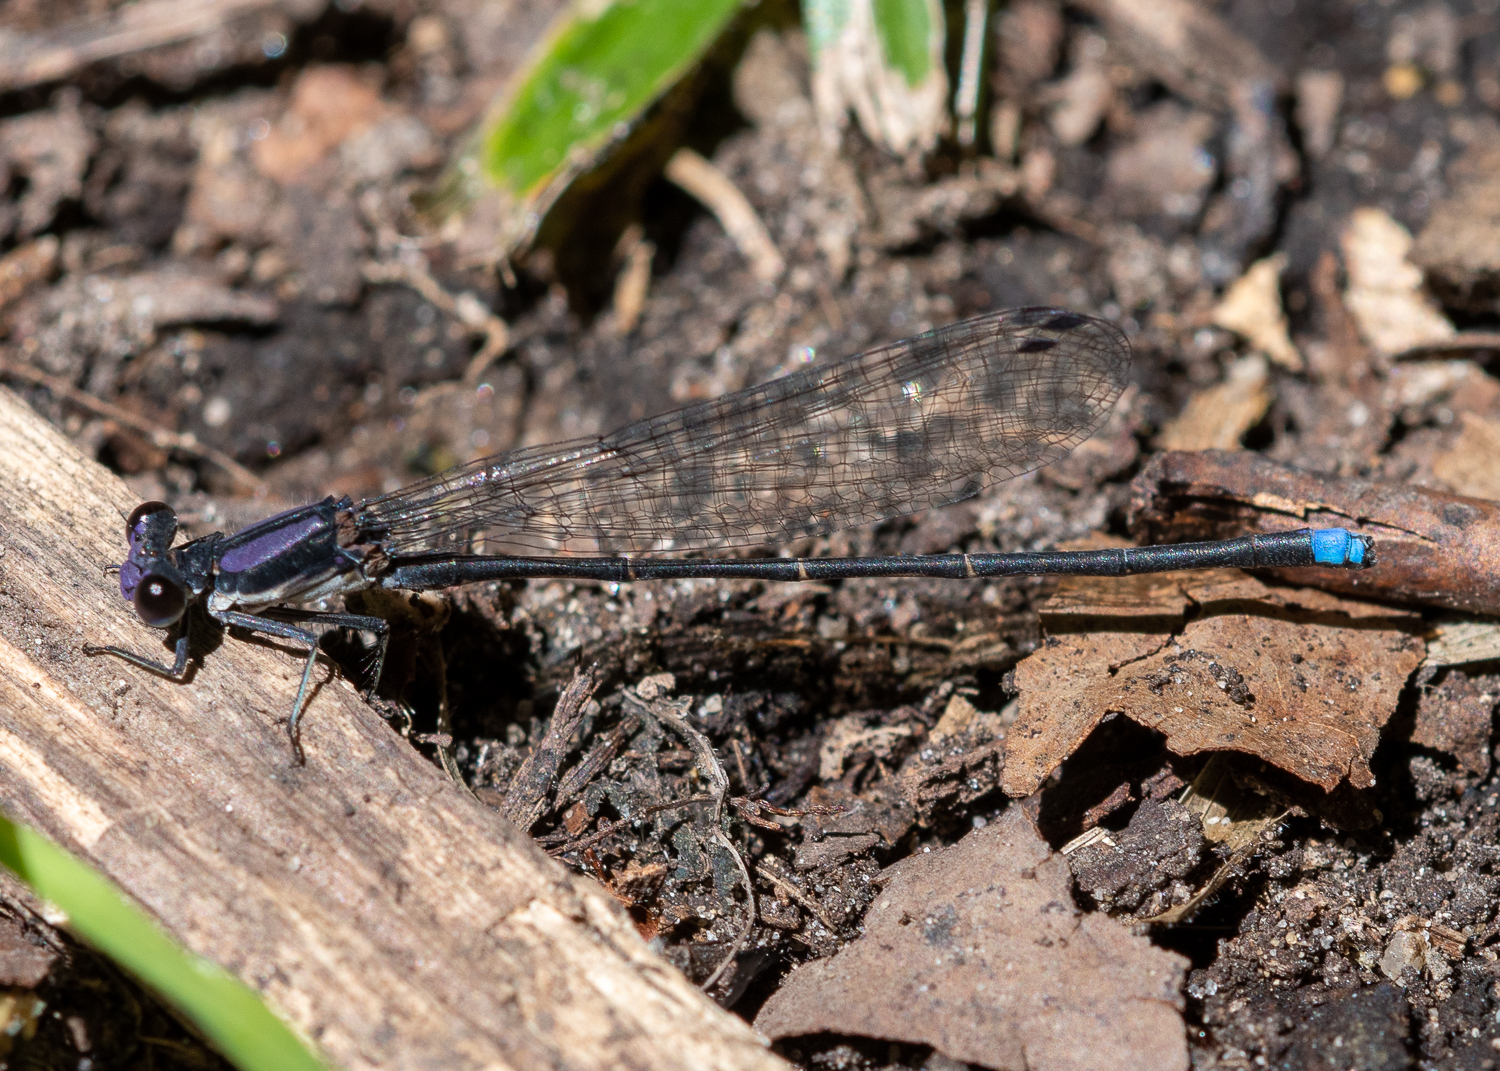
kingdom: Animalia
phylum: Arthropoda
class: Insecta
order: Odonata
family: Coenagrionidae
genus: Argia
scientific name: Argia tibialis
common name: Blue-tipped dancer
